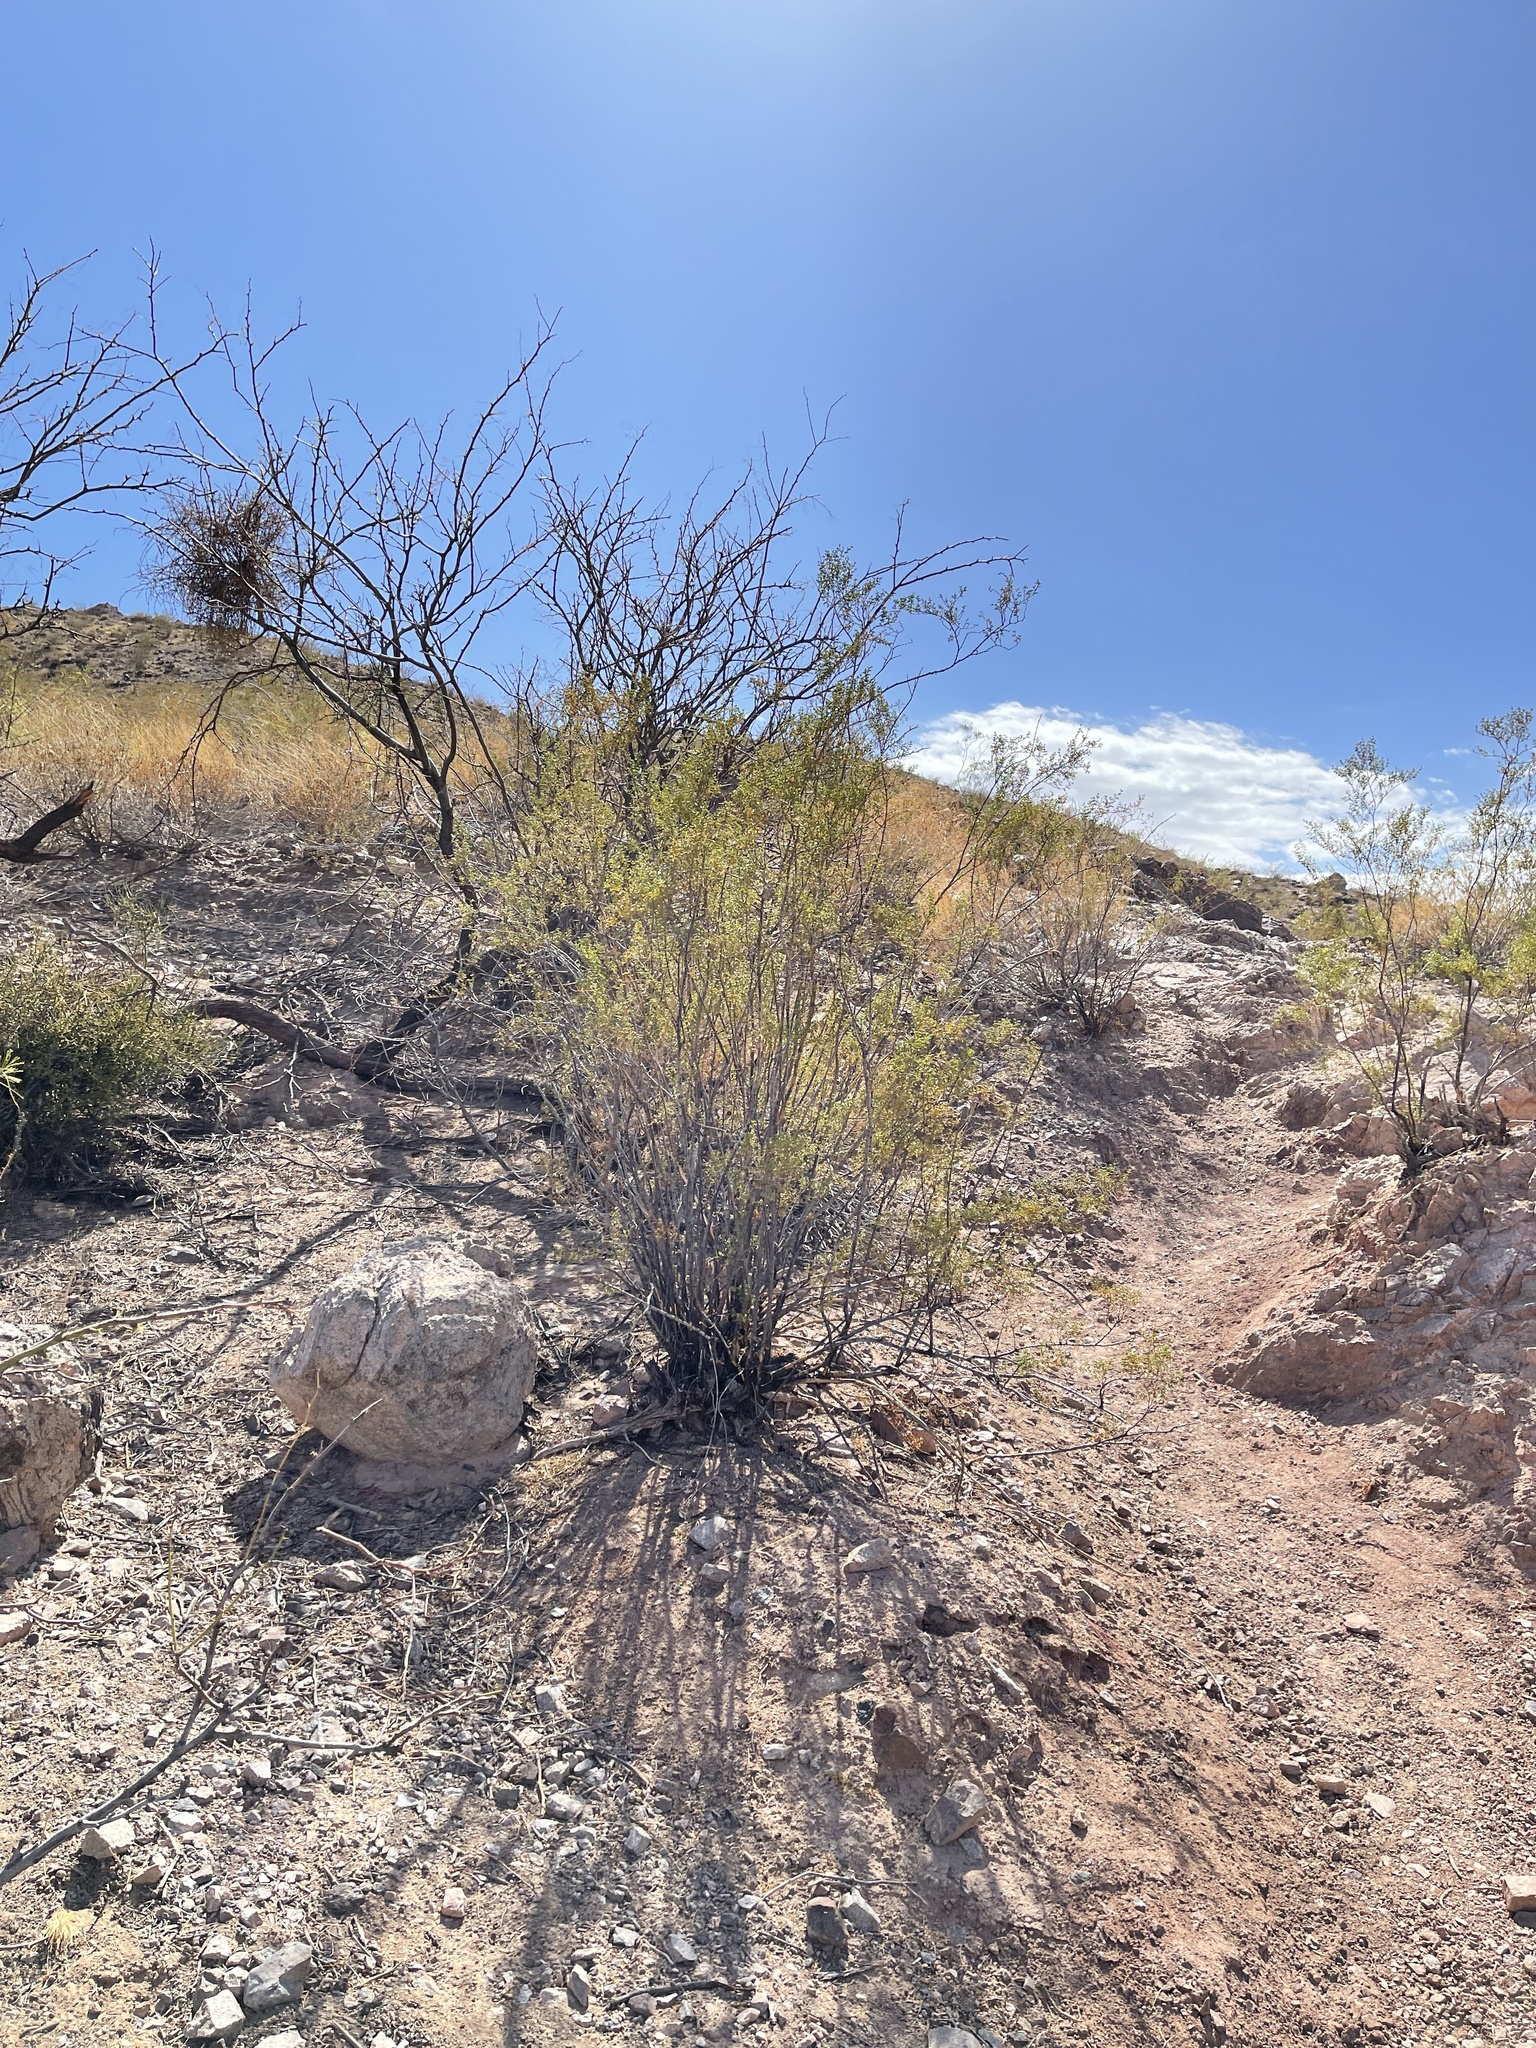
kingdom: Plantae
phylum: Tracheophyta
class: Magnoliopsida
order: Zygophyllales
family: Zygophyllaceae
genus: Larrea
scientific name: Larrea tridentata
